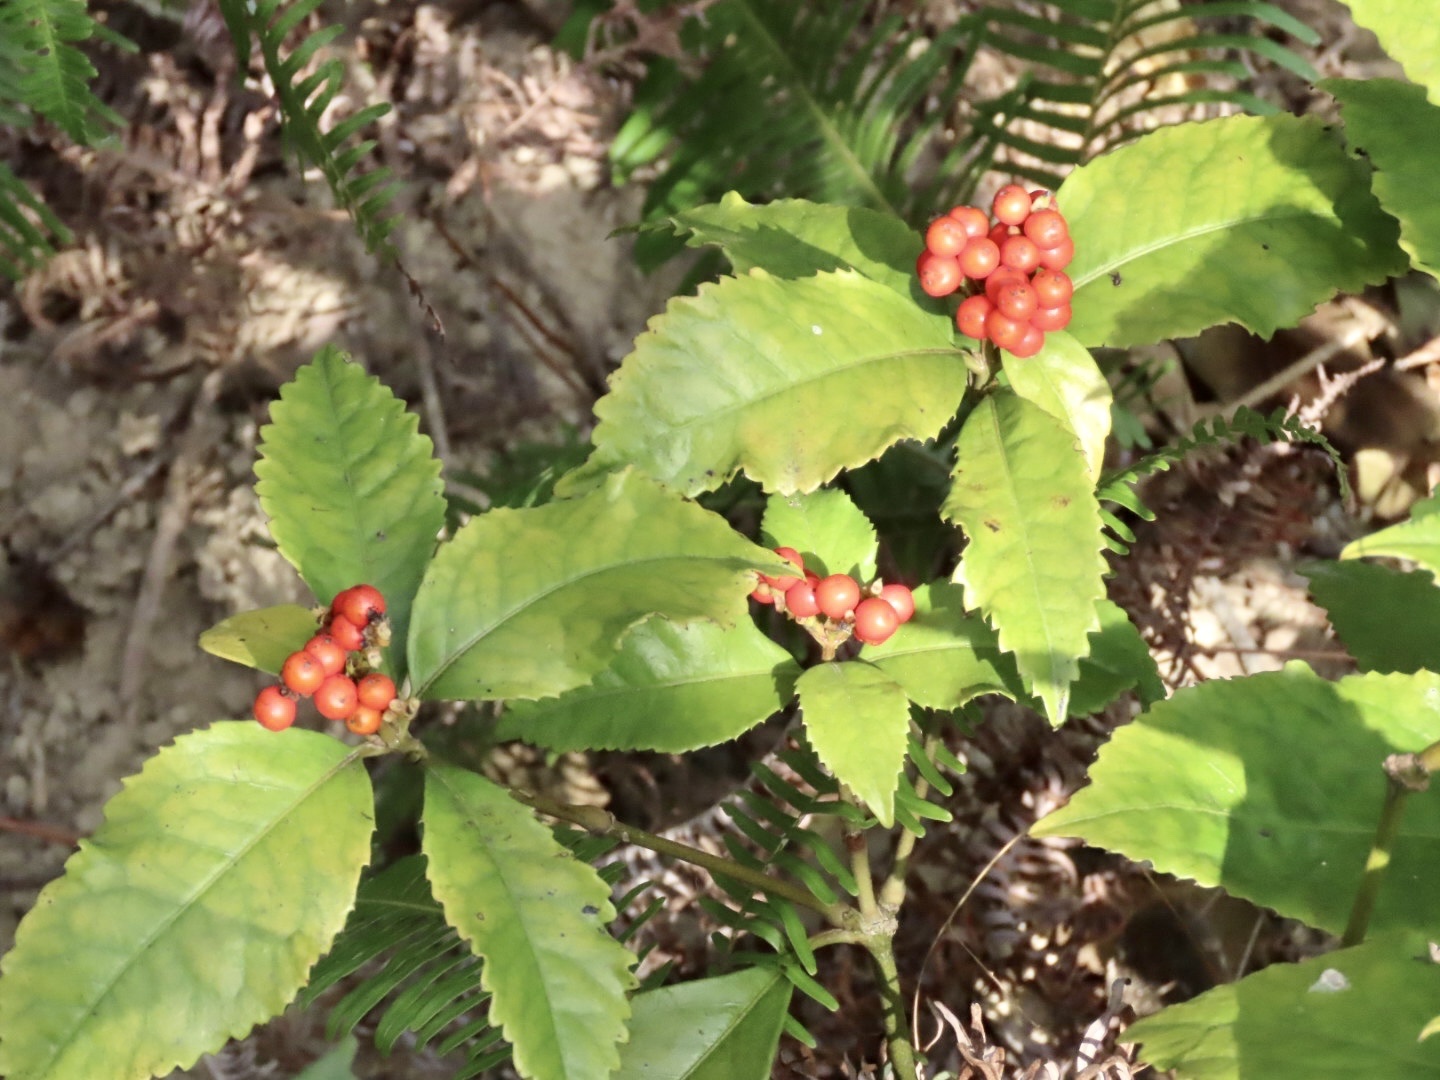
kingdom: Plantae
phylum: Tracheophyta
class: Magnoliopsida
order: Chloranthales
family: Chloranthaceae
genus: Sarcandra
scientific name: Sarcandra glabra
